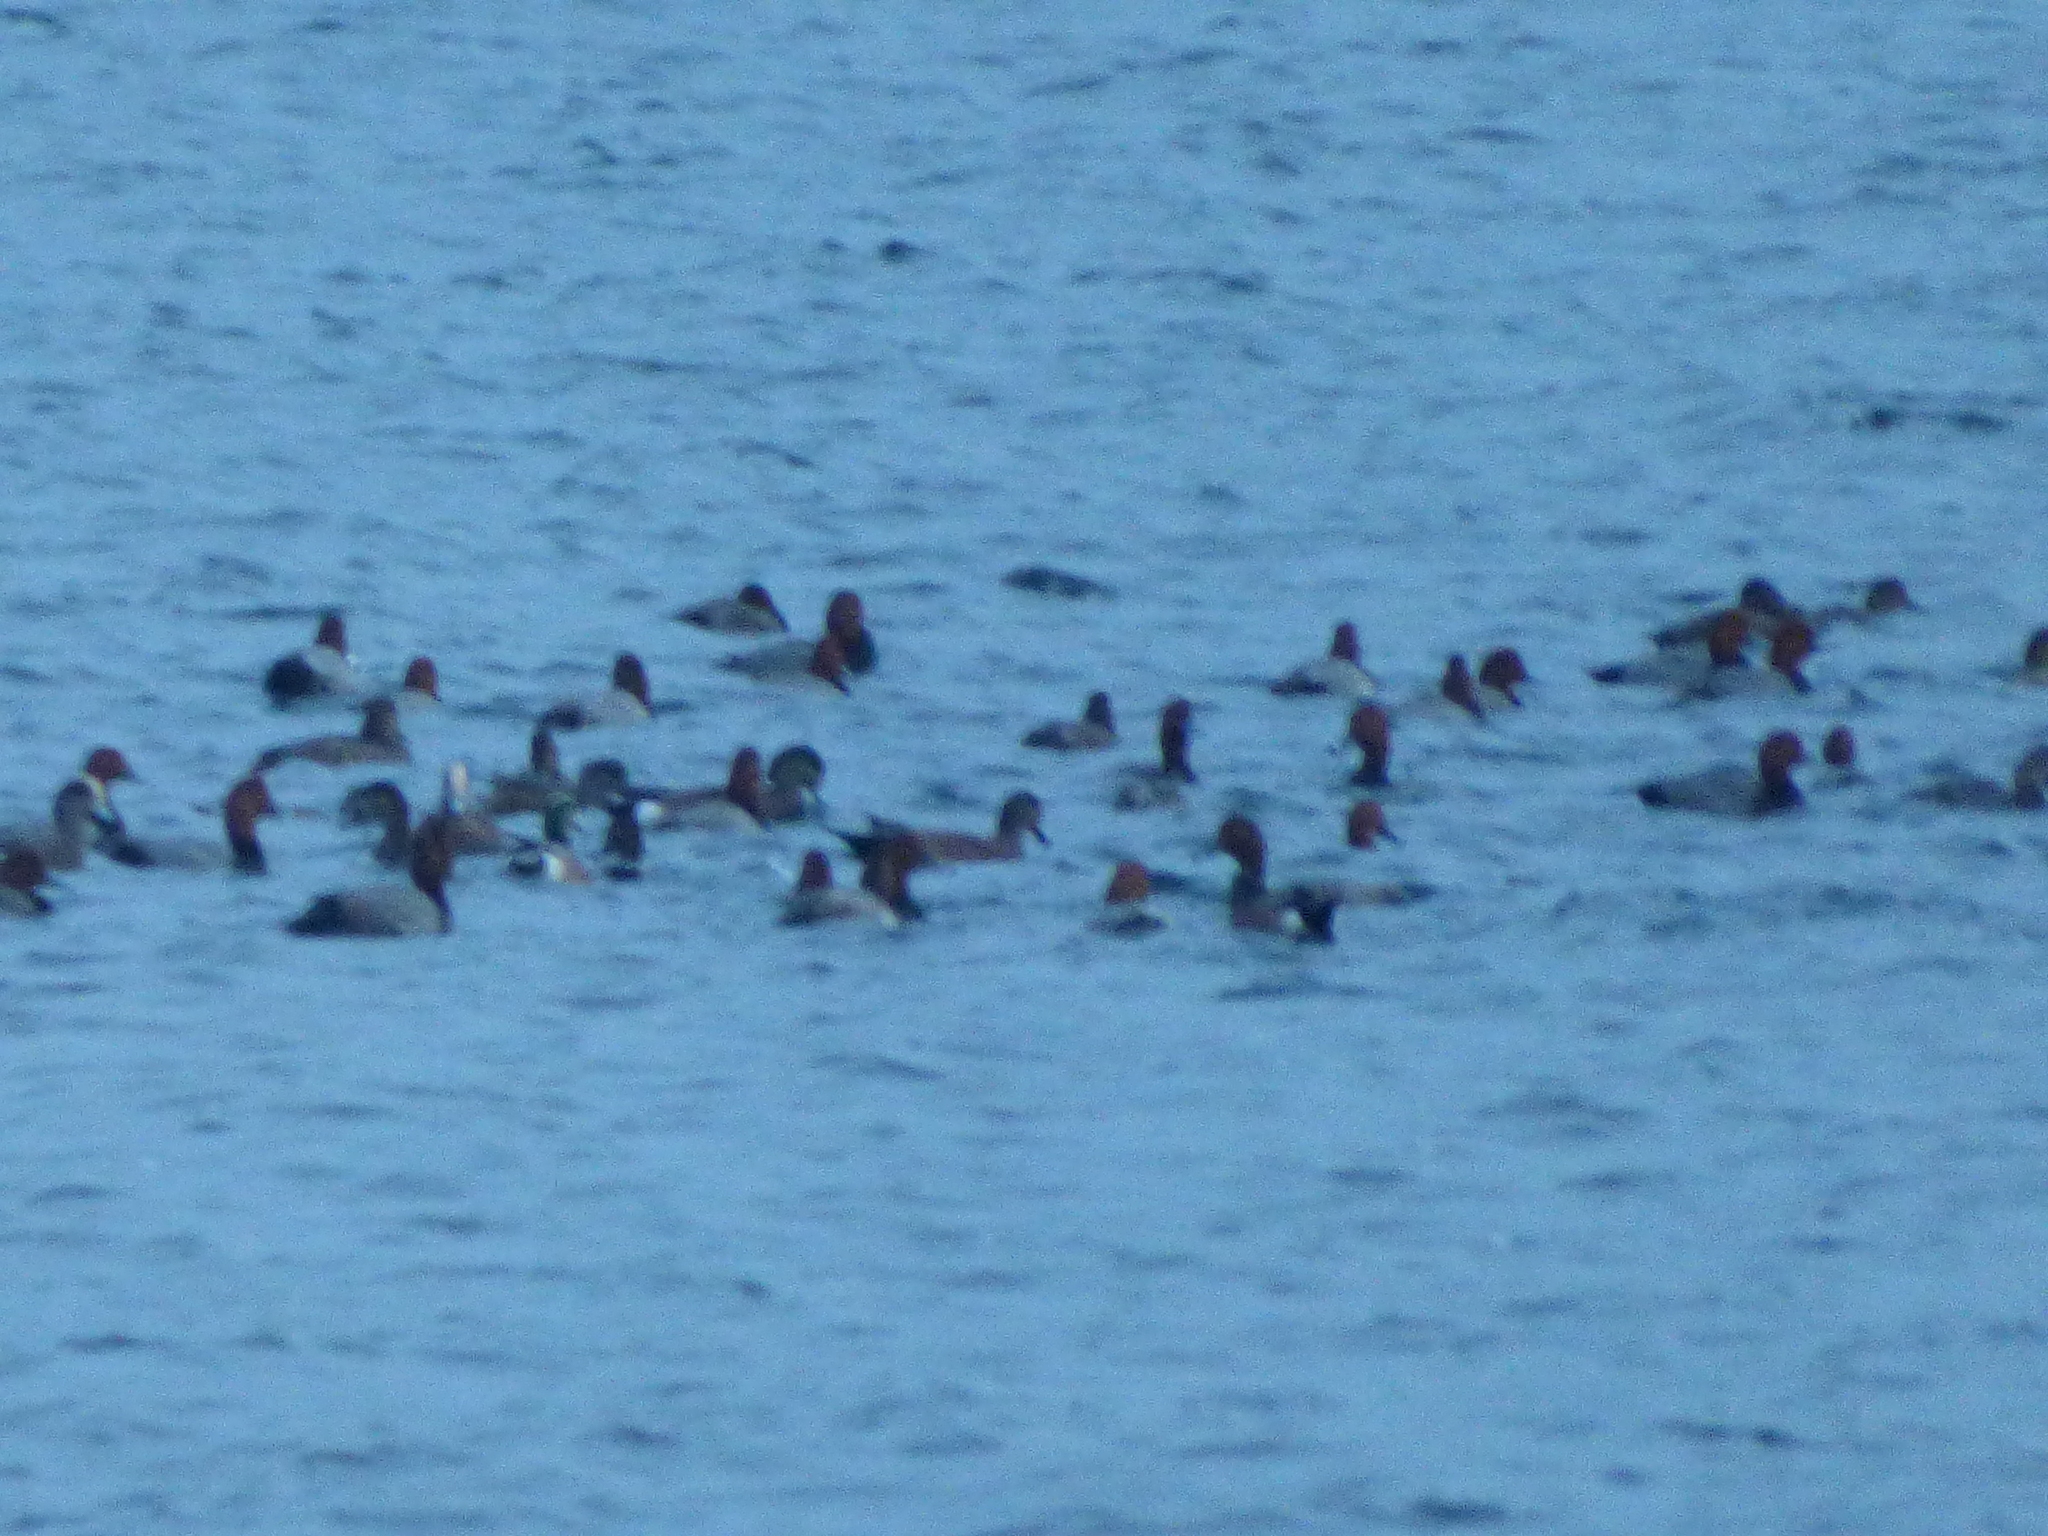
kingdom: Animalia
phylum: Chordata
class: Aves
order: Anseriformes
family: Anatidae
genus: Aythya
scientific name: Aythya americana
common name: Redhead
